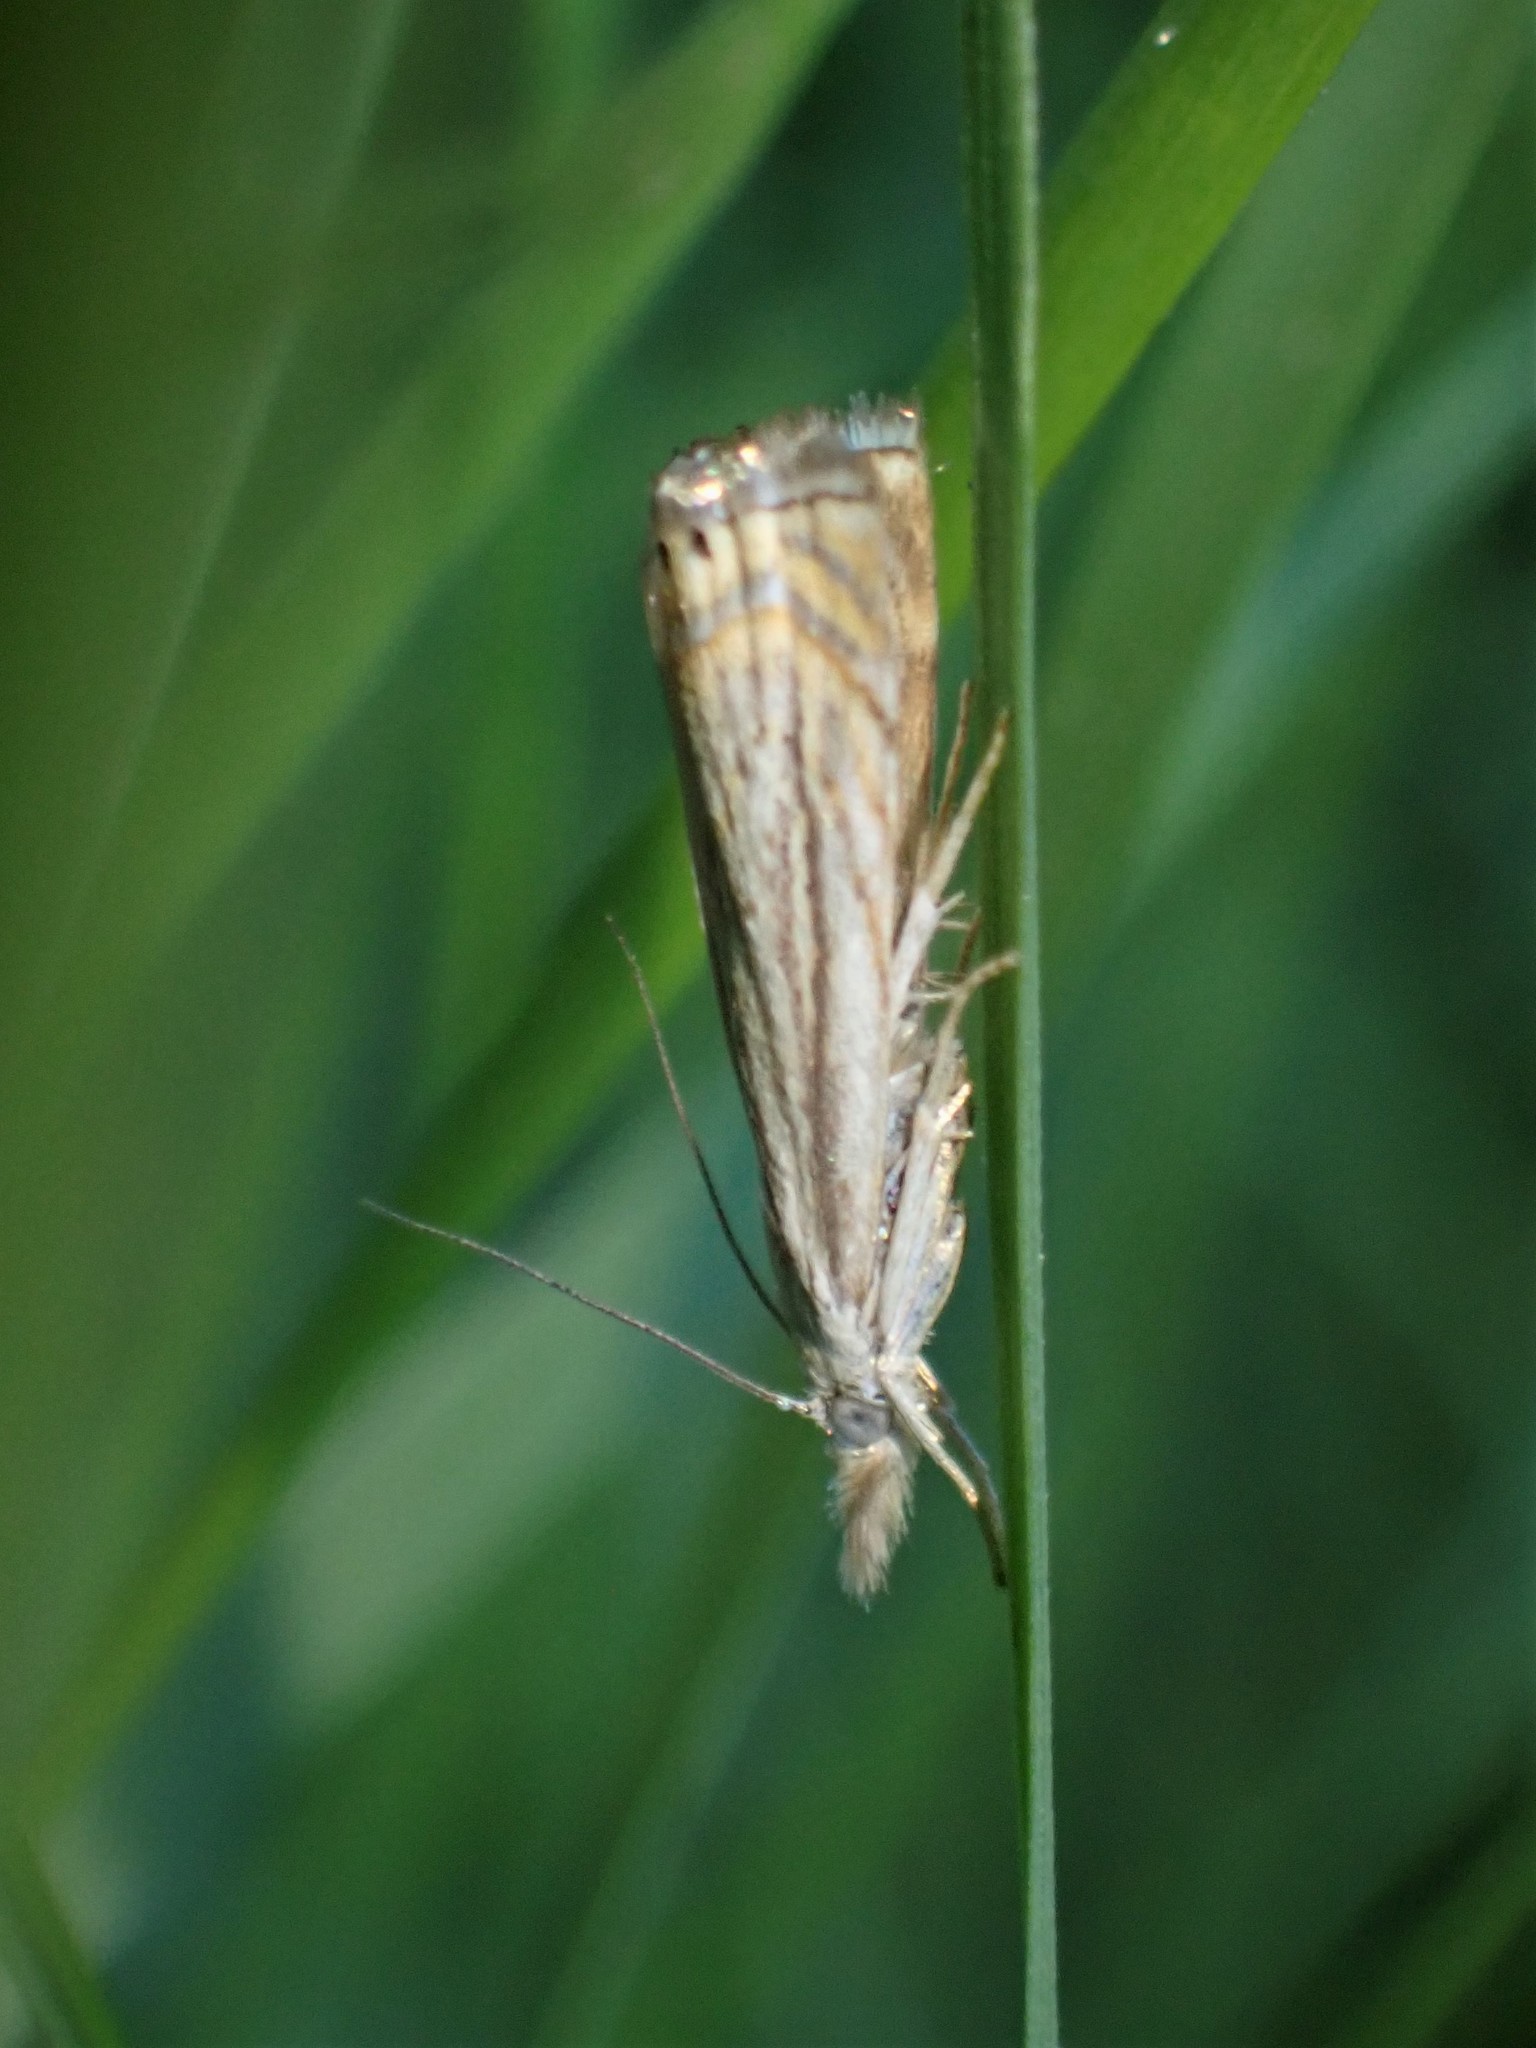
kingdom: Animalia
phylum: Arthropoda
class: Insecta
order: Lepidoptera
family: Crambidae
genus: Chrysoteuchia
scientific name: Chrysoteuchia topiarius
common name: Topiary grass-veneer
